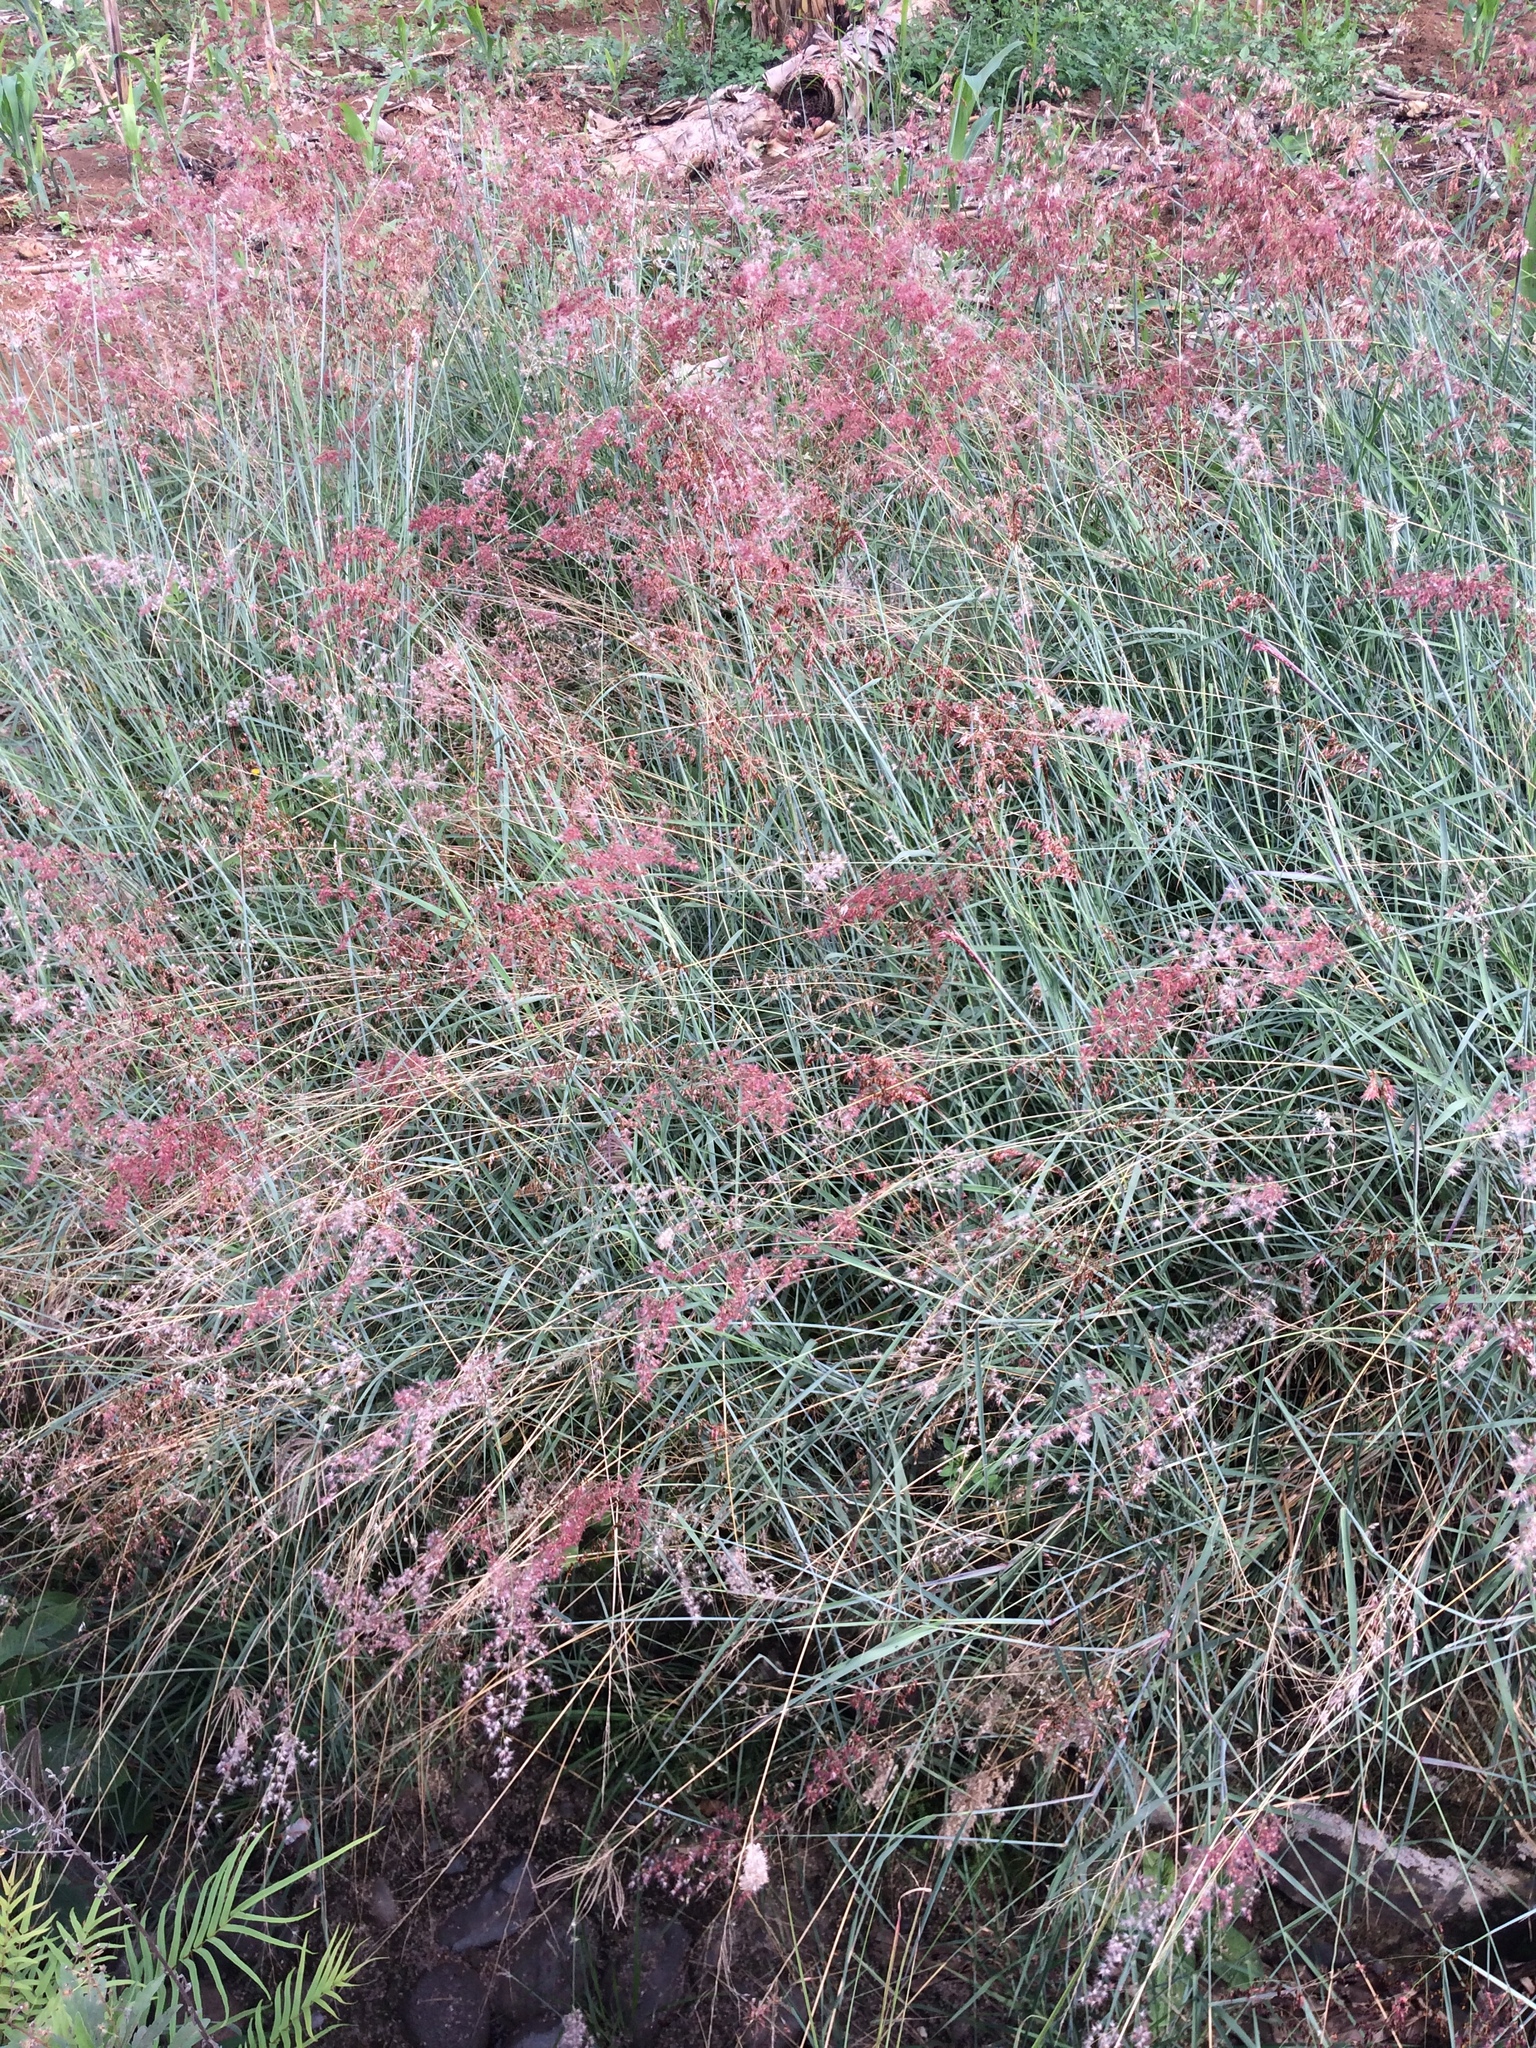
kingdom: Plantae
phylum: Tracheophyta
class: Liliopsida
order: Poales
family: Poaceae
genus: Melinis
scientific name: Melinis repens
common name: Rose natal grass
